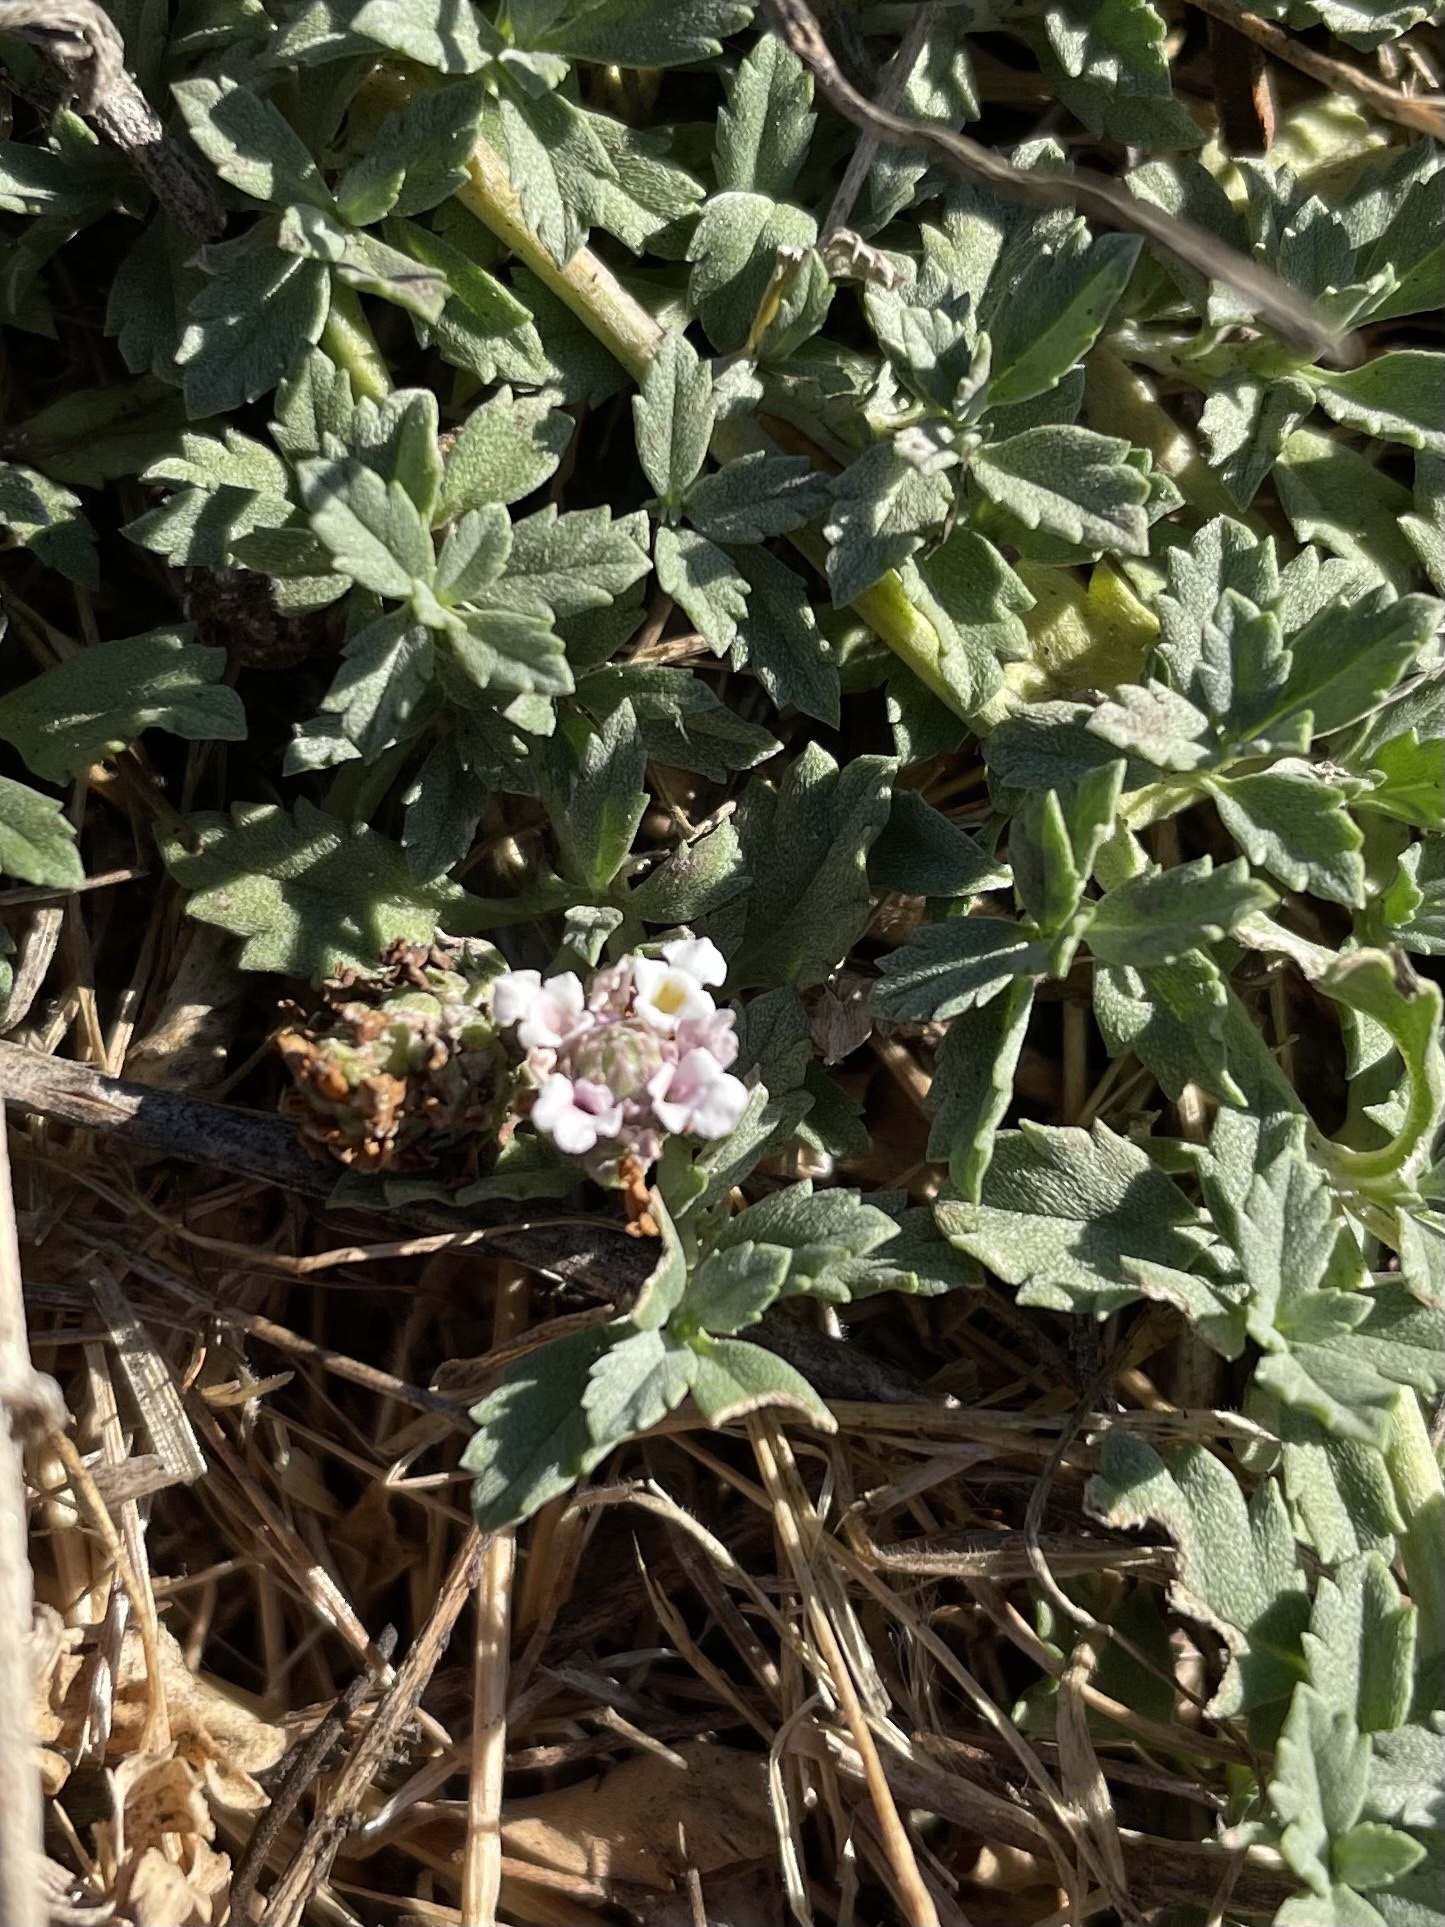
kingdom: Plantae
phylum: Tracheophyta
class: Magnoliopsida
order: Lamiales
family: Verbenaceae
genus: Phyla
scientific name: Phyla nodiflora
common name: Frogfruit
